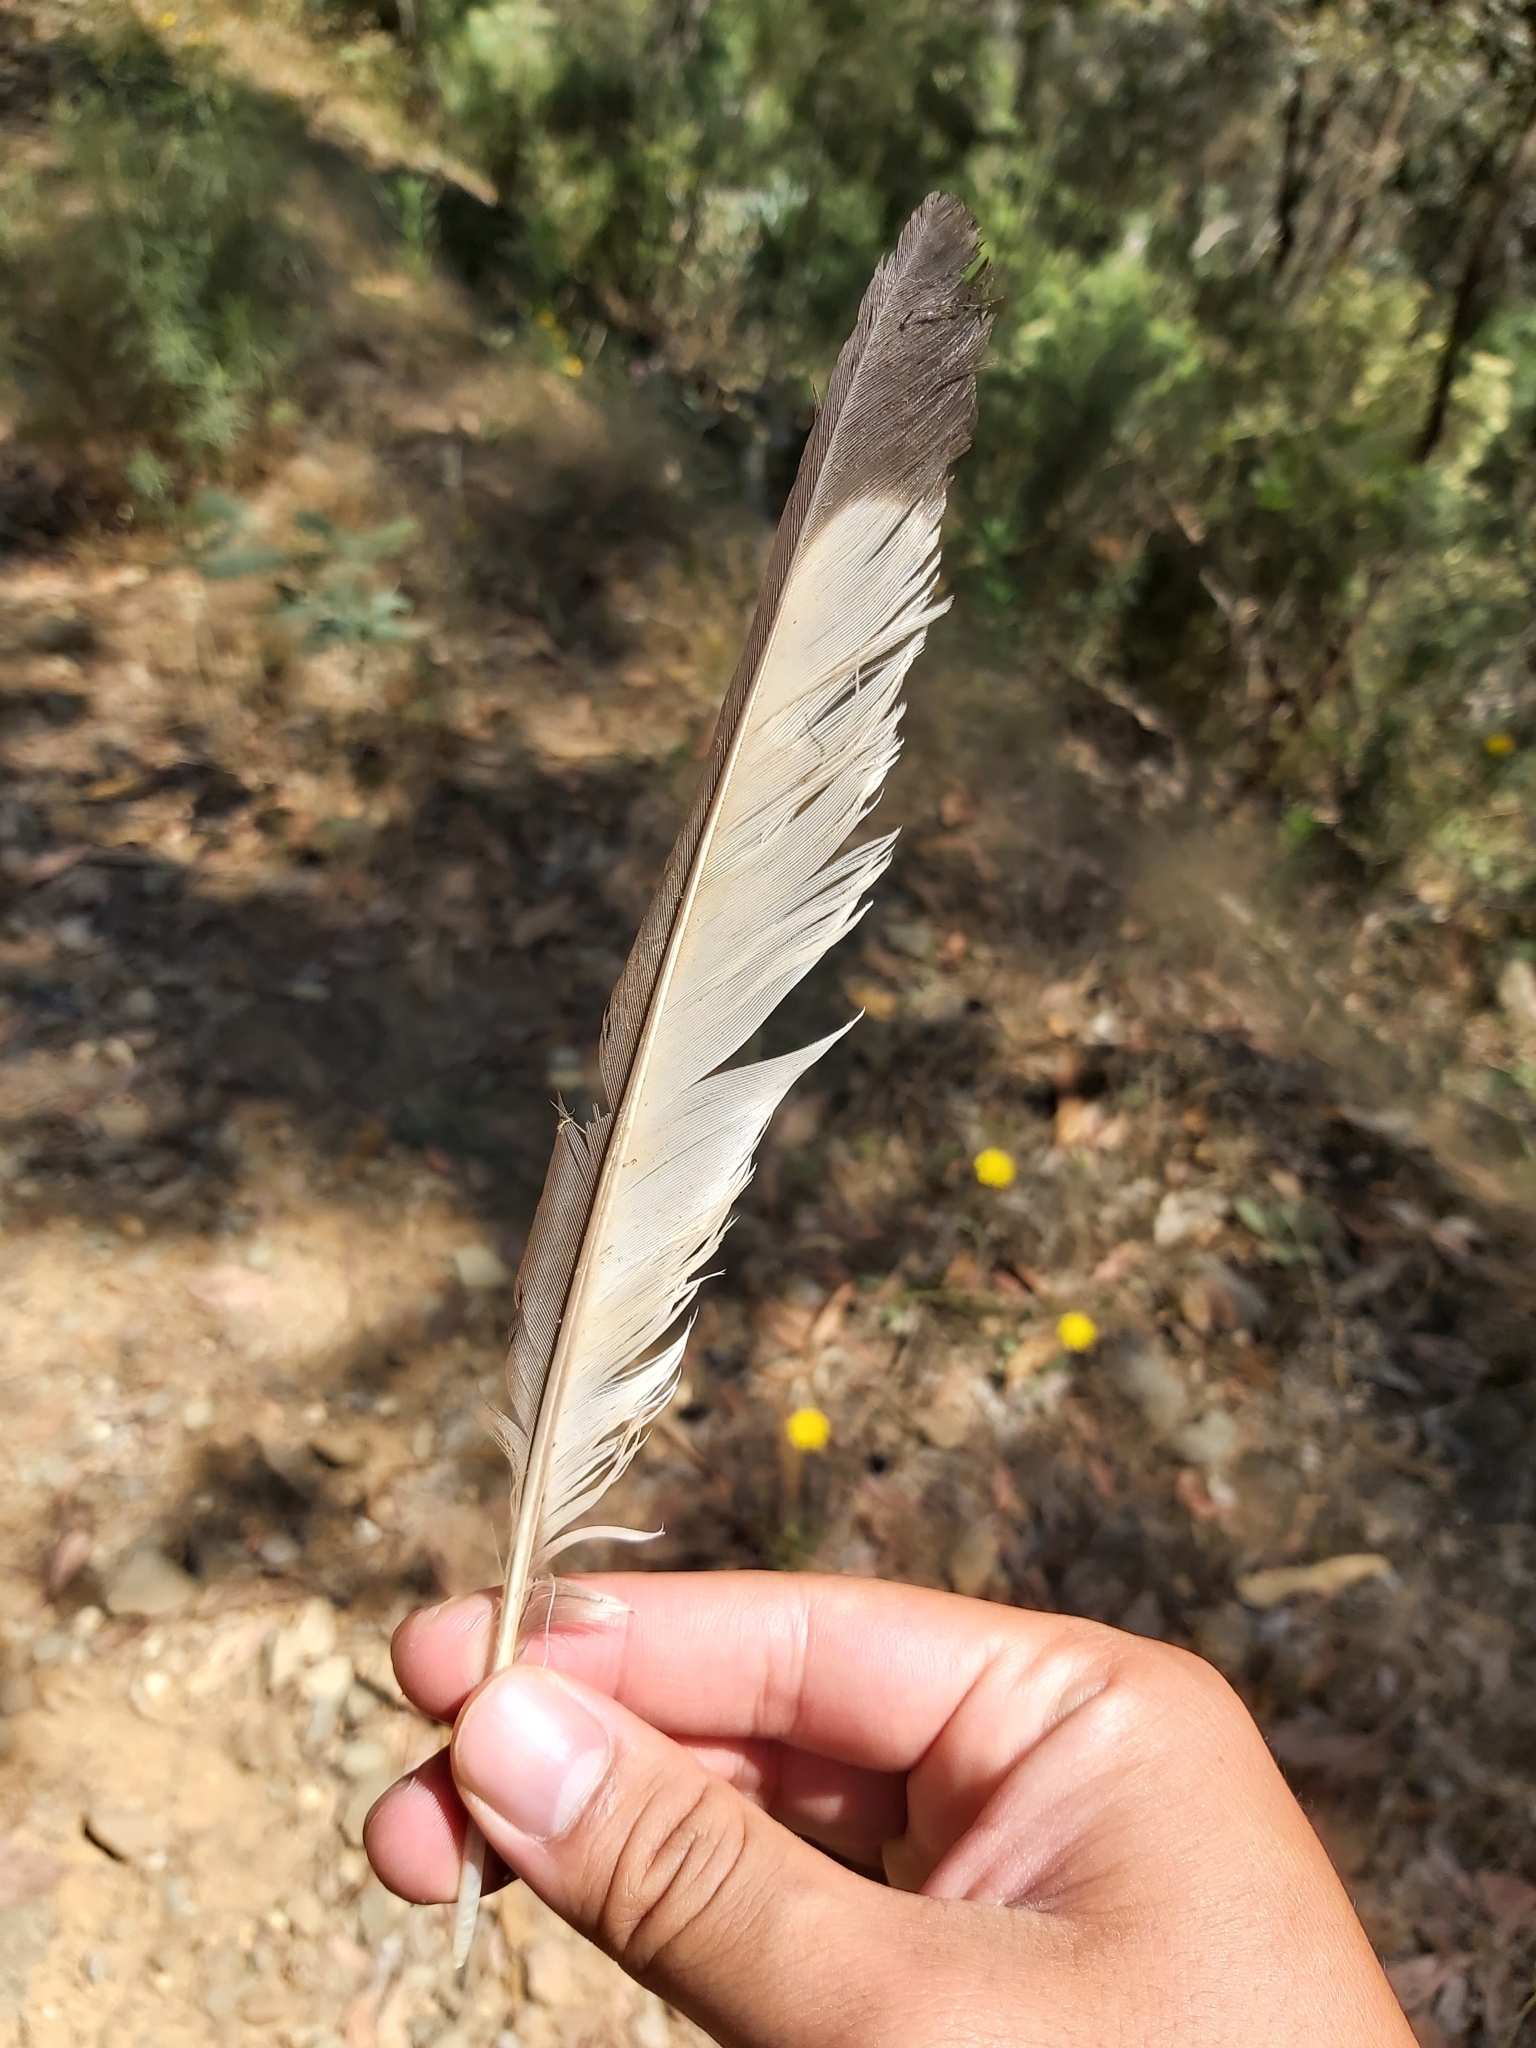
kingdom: Animalia
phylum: Chordata
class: Aves
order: Passeriformes
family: Corcoracidae
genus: Corcorax
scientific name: Corcorax melanoramphos
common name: White-winged chough
